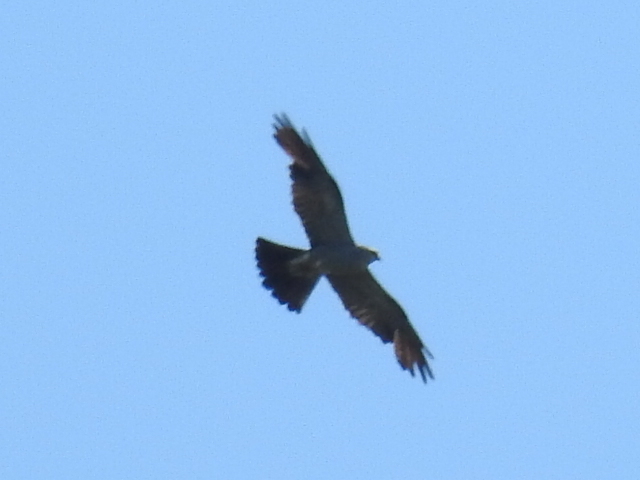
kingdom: Animalia
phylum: Chordata
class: Aves
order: Accipitriformes
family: Accipitridae
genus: Ictinia
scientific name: Ictinia mississippiensis
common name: Mississippi kite
